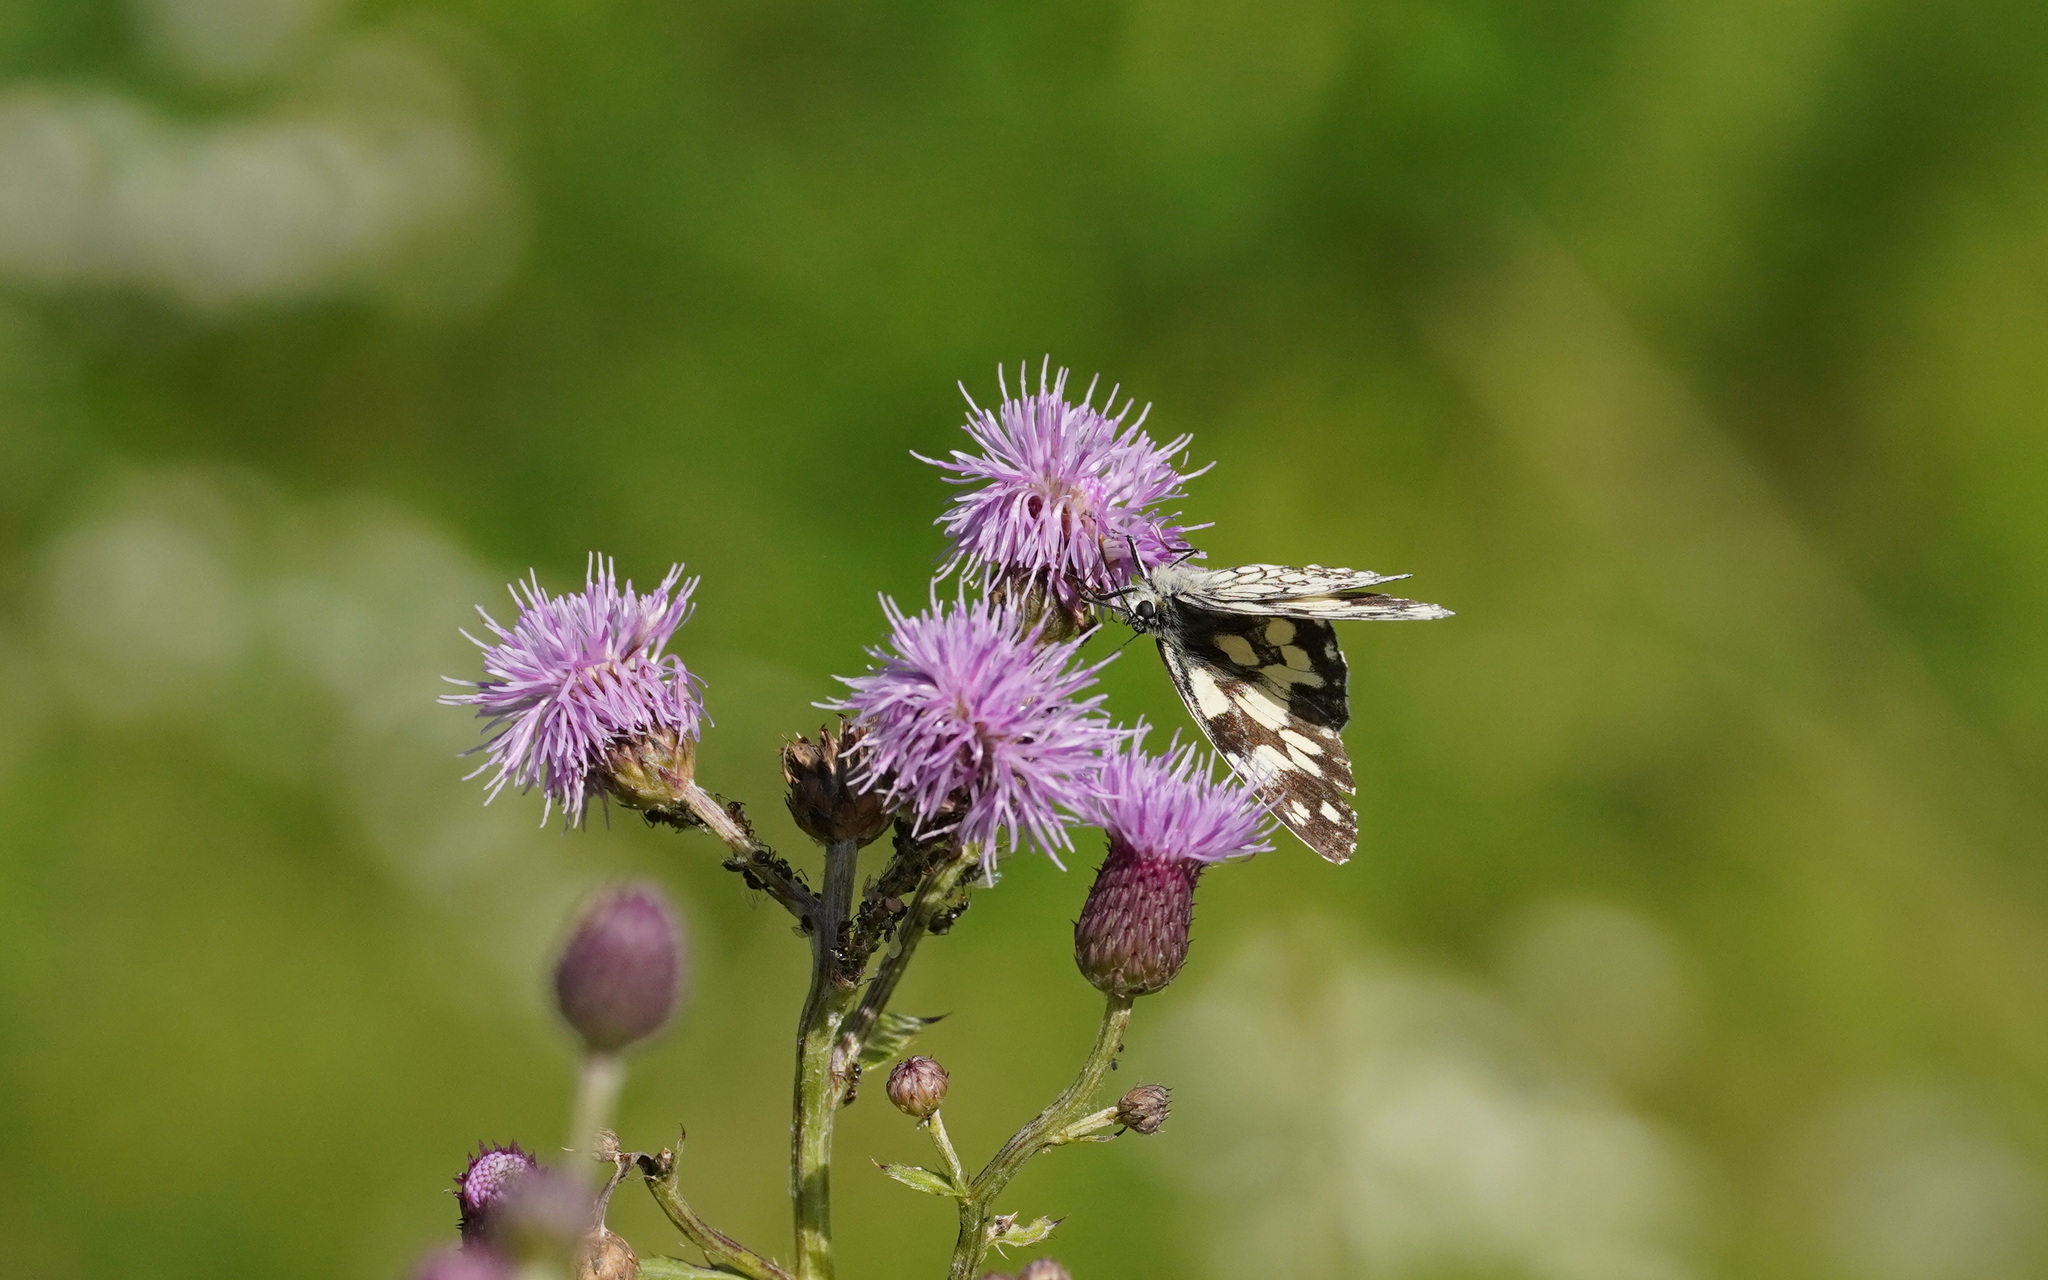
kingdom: Animalia
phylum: Arthropoda
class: Insecta
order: Lepidoptera
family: Nymphalidae
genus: Melanargia
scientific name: Melanargia galathea
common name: Marbled white
